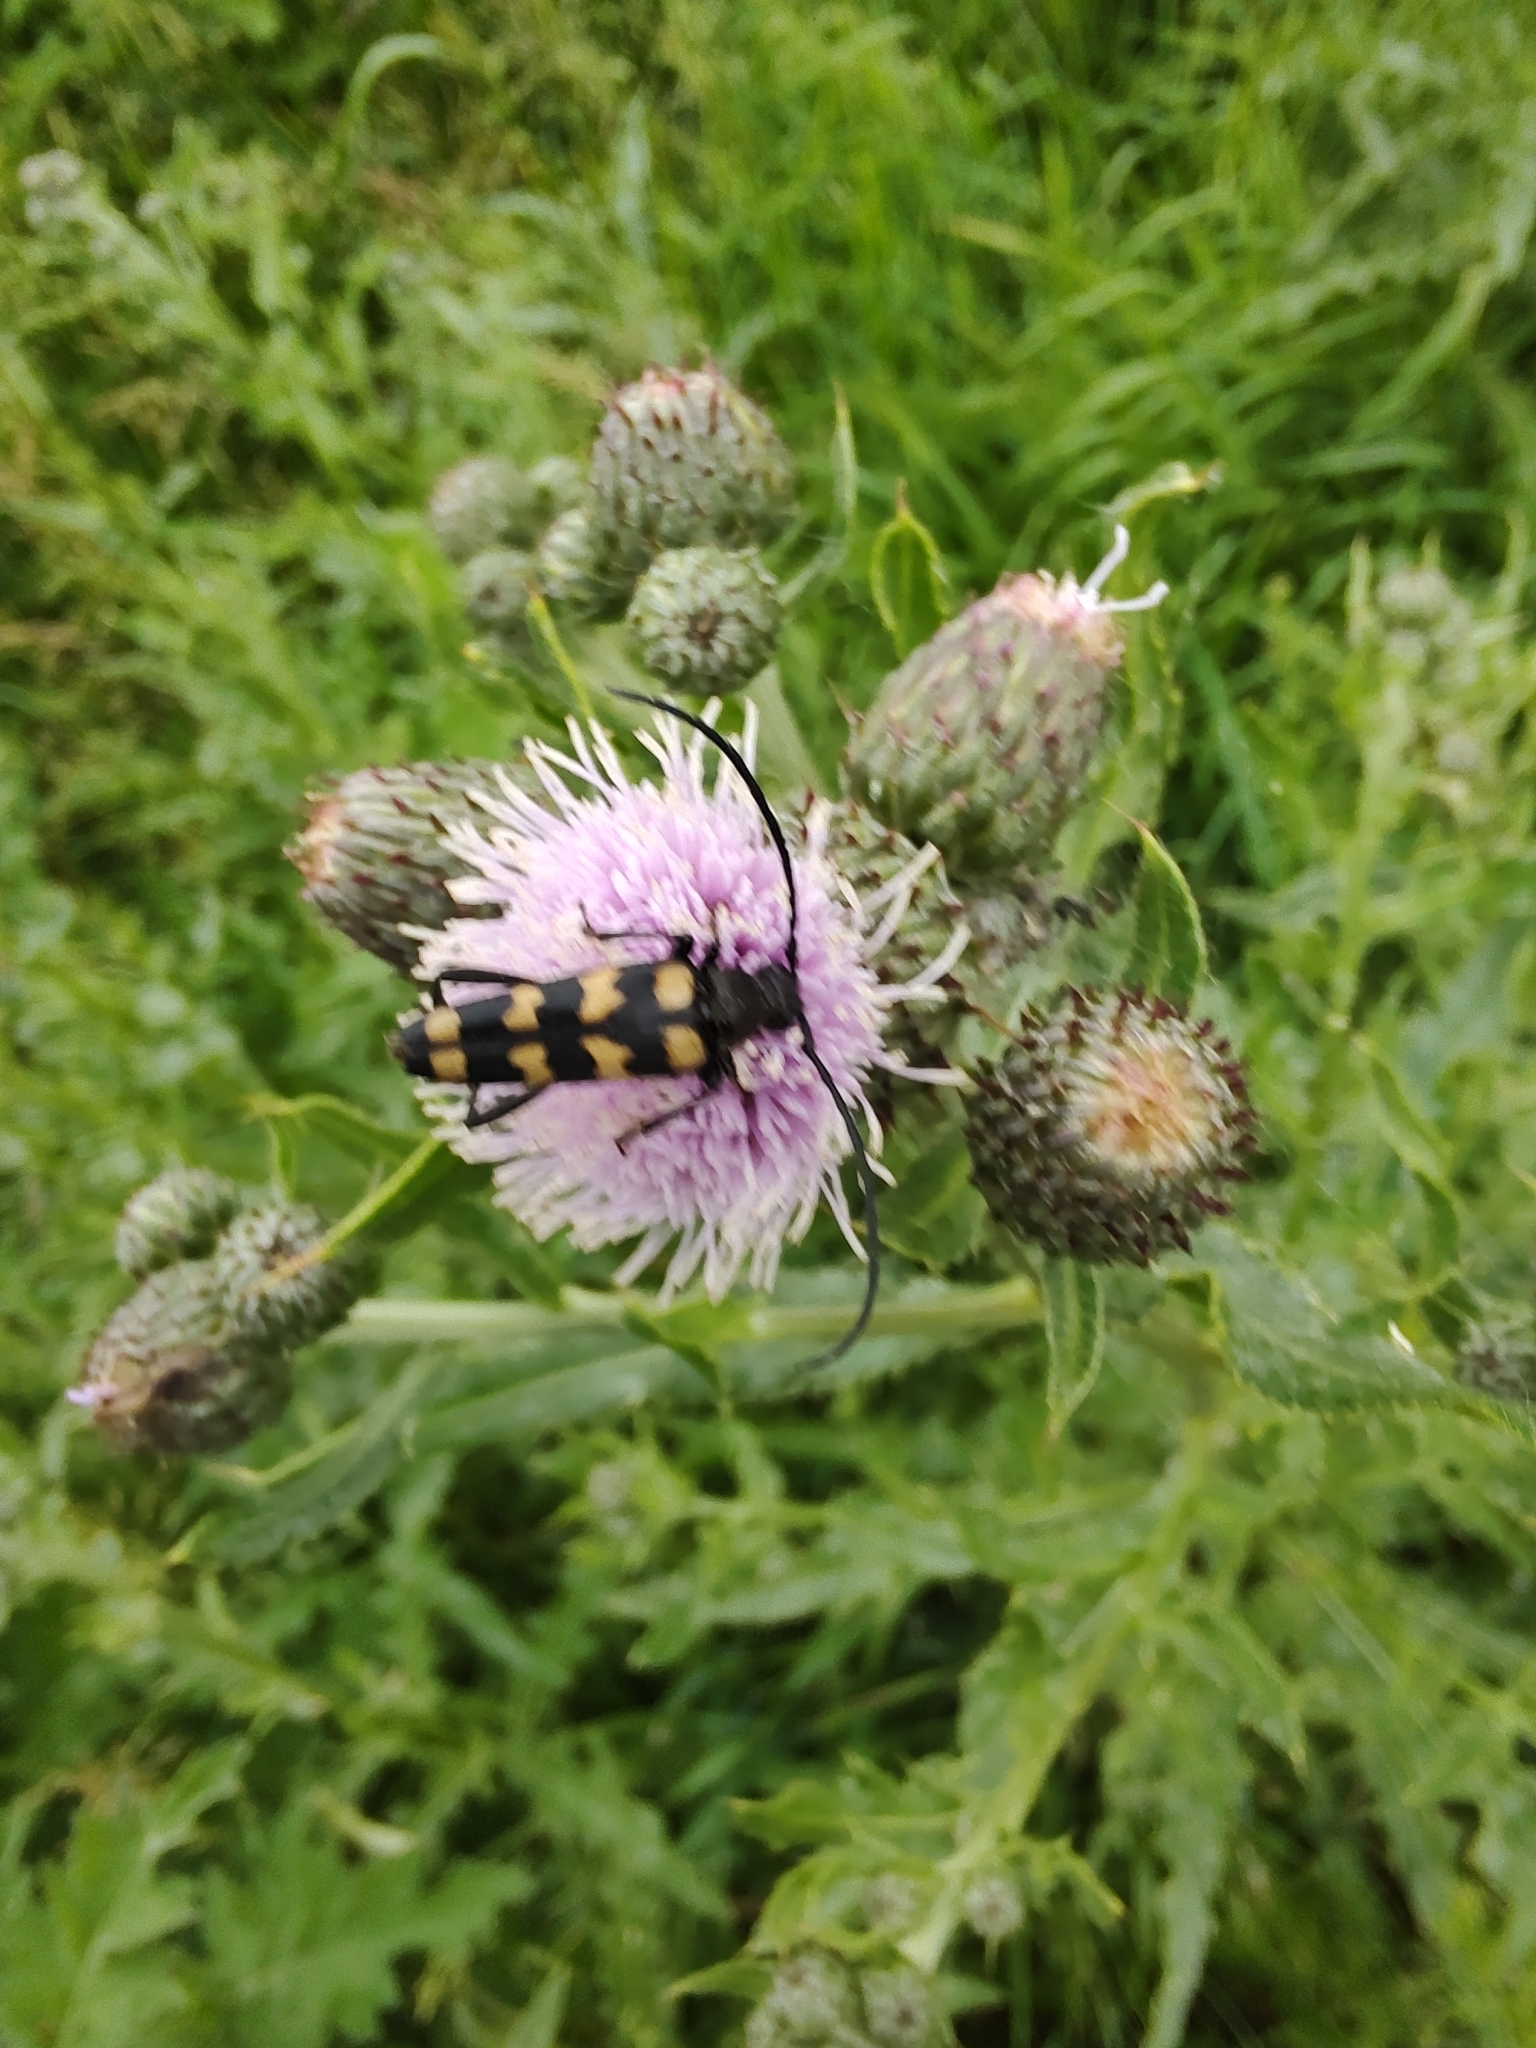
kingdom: Animalia
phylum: Arthropoda
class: Insecta
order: Coleoptera
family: Cerambycidae
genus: Leptura
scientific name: Leptura quadrifasciata
